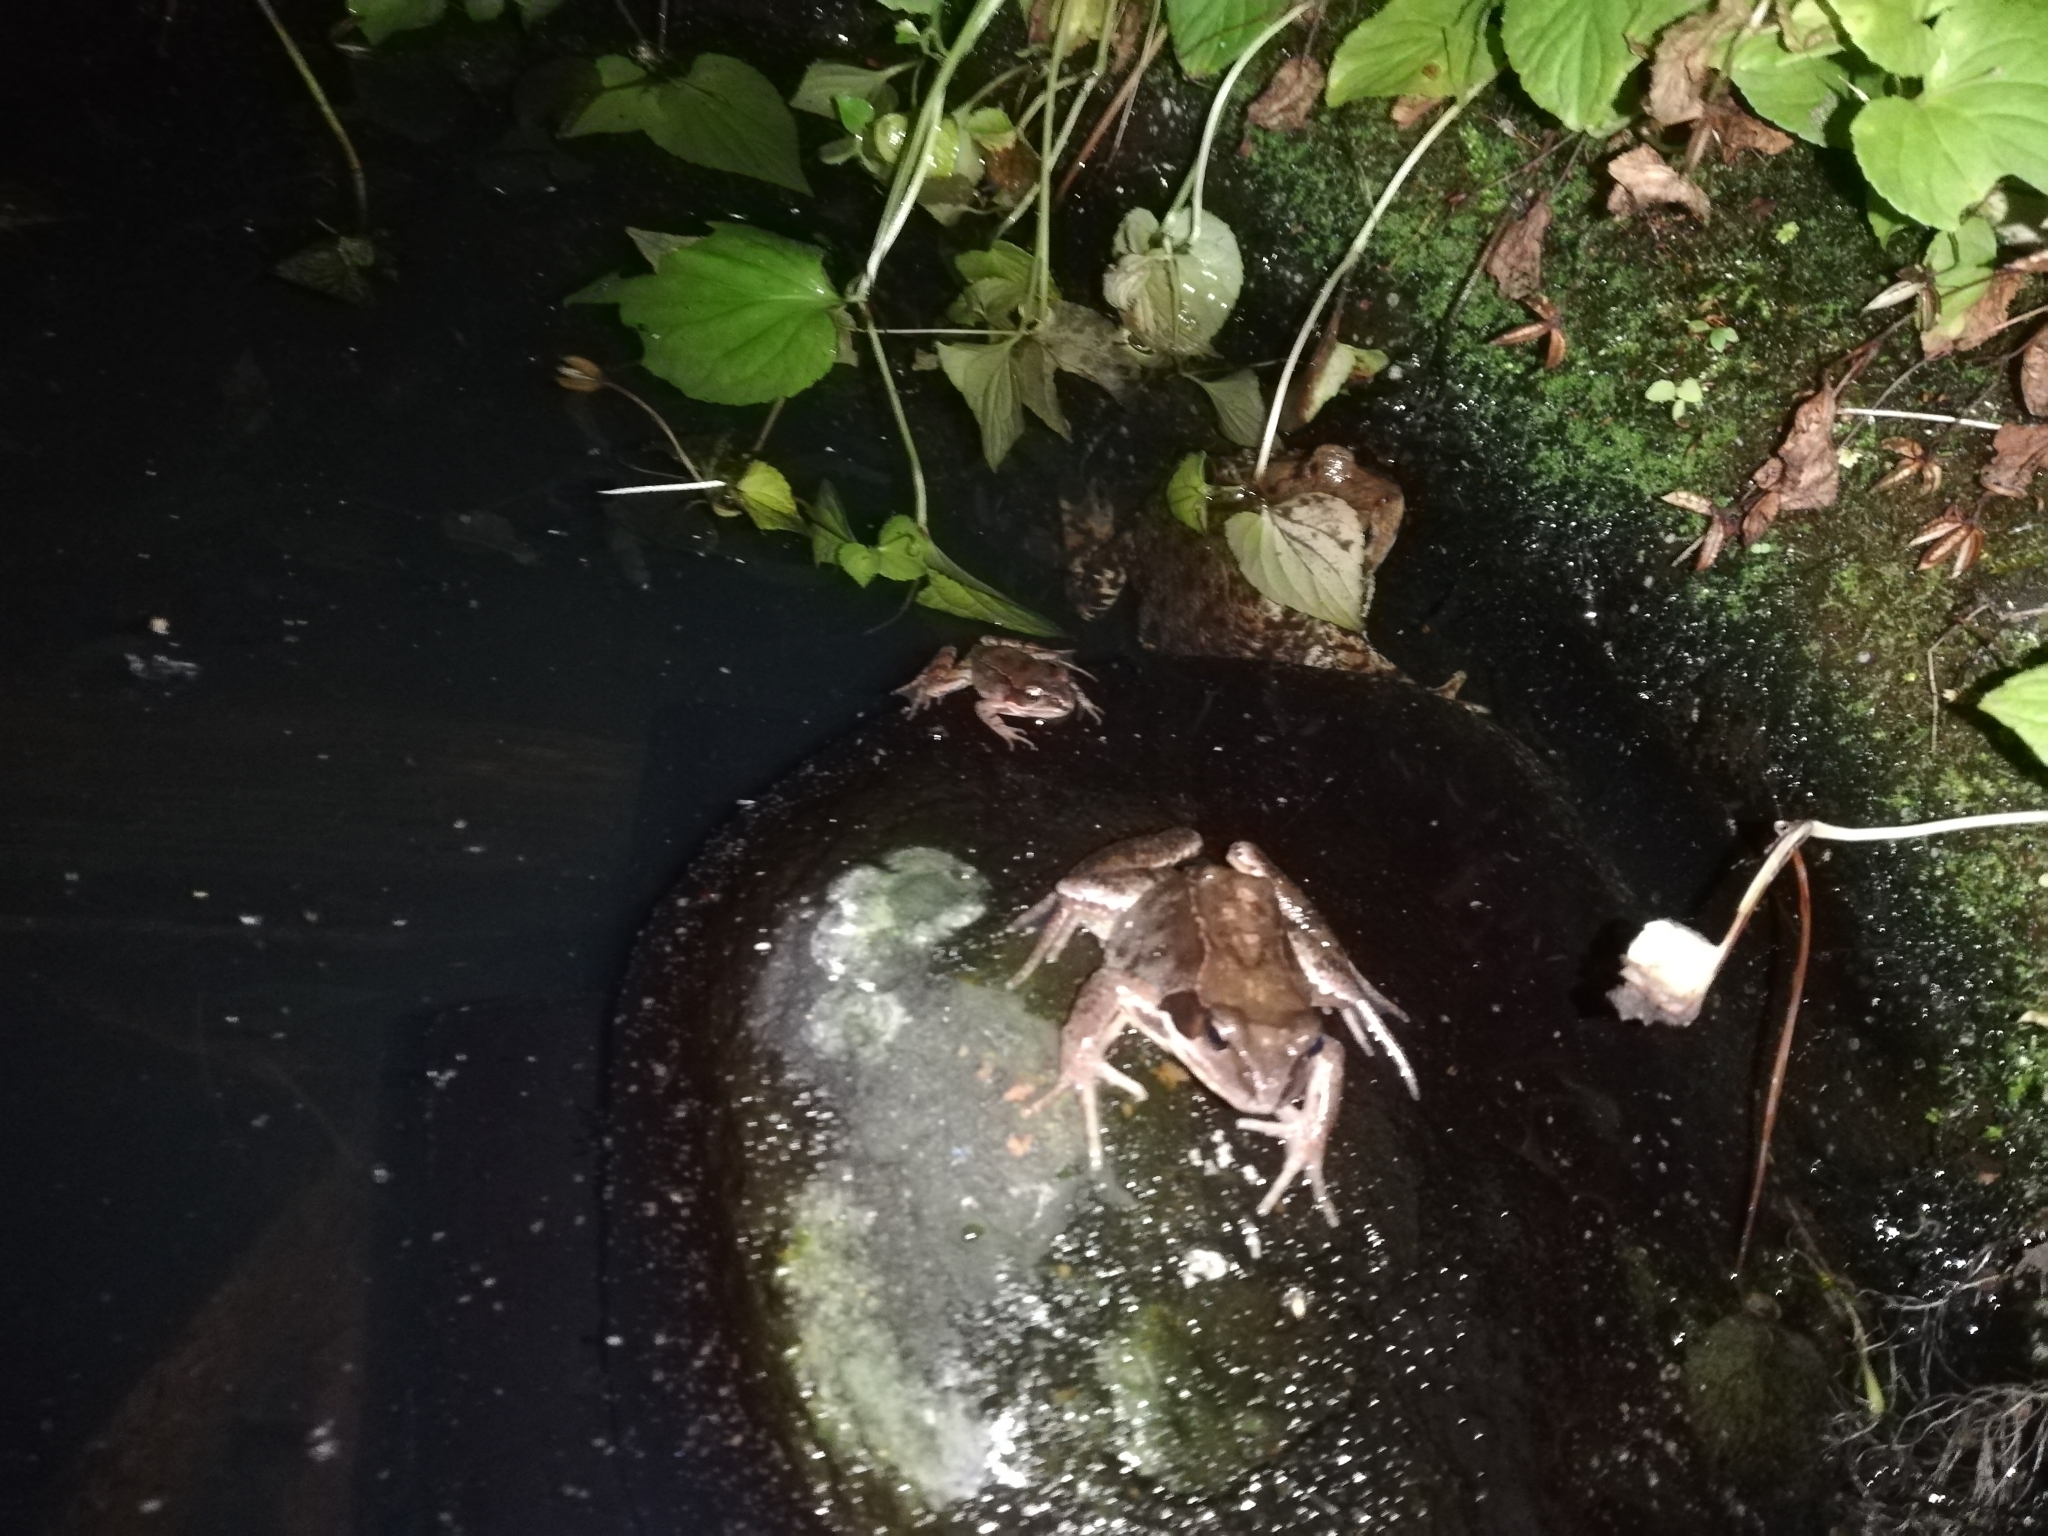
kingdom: Animalia
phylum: Chordata
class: Amphibia
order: Anura
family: Ranidae
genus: Rana
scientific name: Rana temporaria
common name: Common frog
